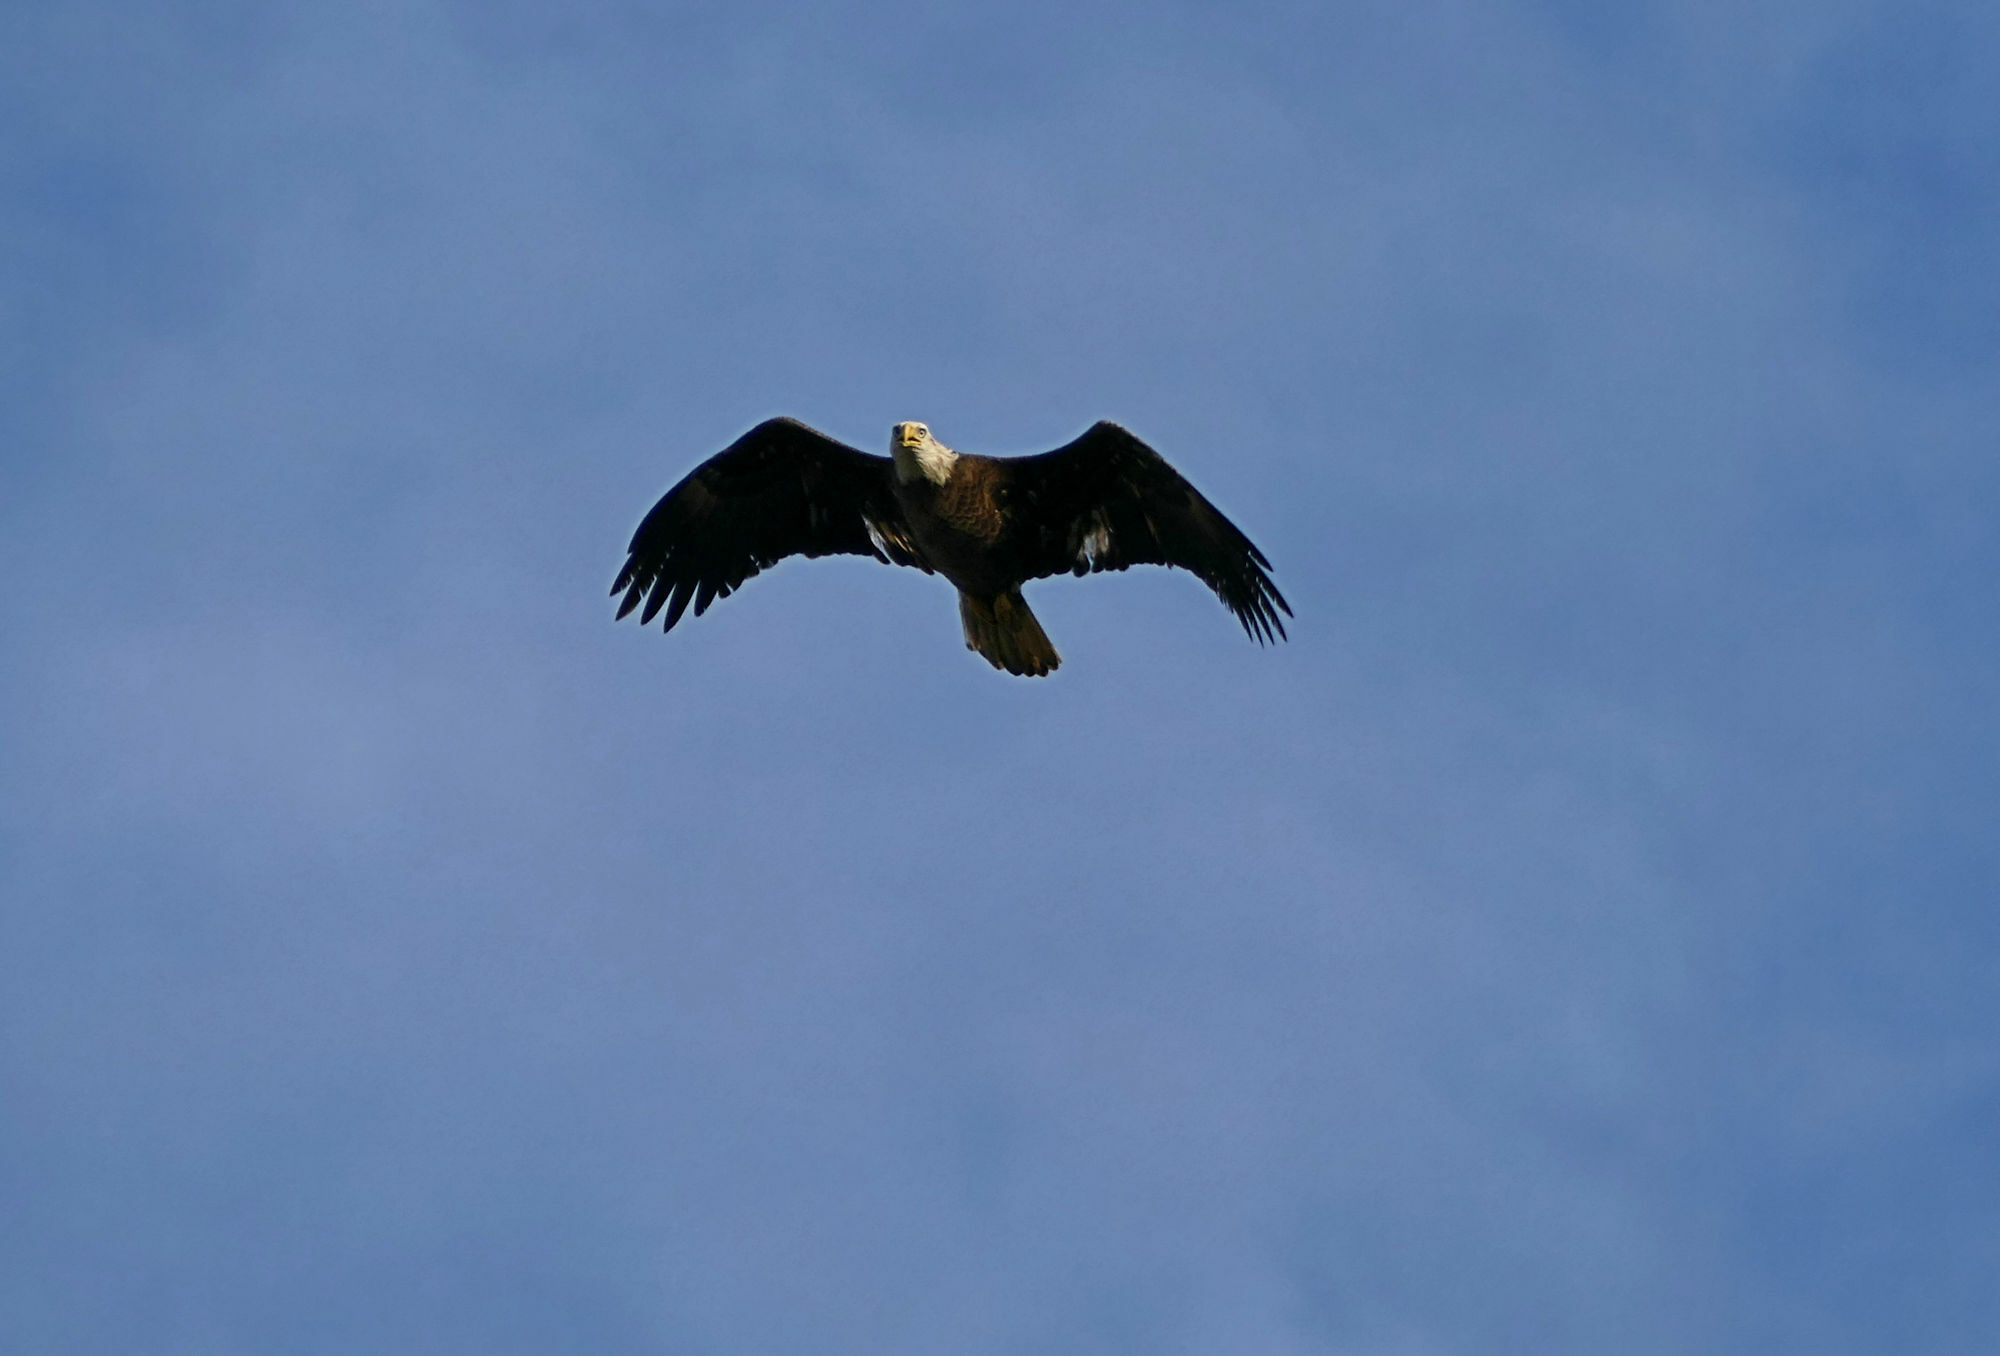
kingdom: Animalia
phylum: Chordata
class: Aves
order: Accipitriformes
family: Accipitridae
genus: Haliaeetus
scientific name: Haliaeetus leucocephalus
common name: Bald eagle
